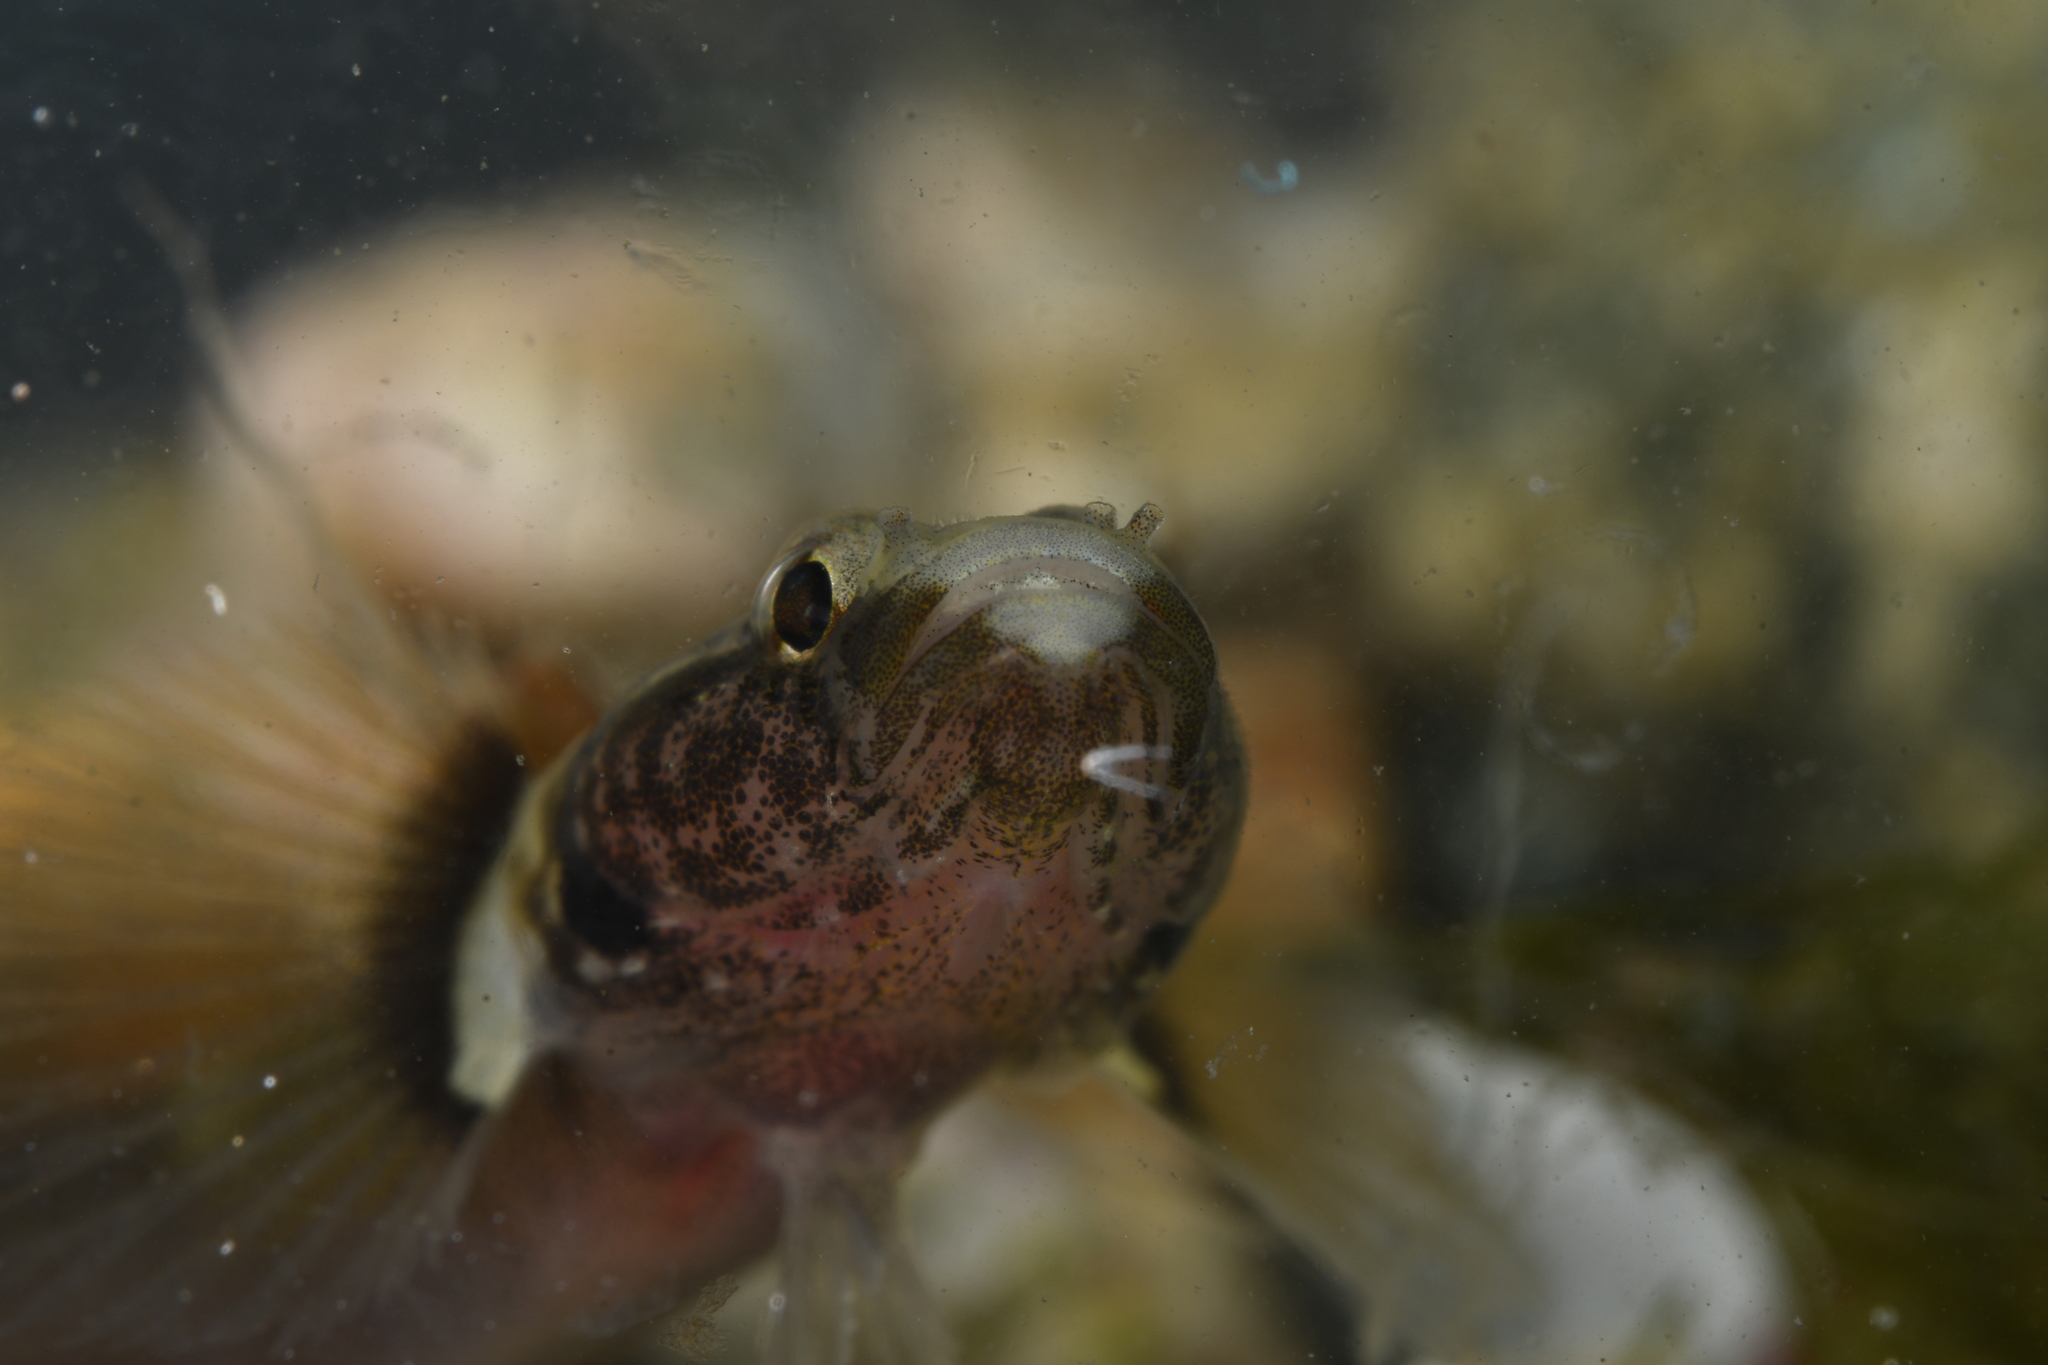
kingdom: Animalia
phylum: Chordata
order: Perciformes
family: Gobiidae
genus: Chromogobius
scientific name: Chromogobius quadrivittatus
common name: Chestnut goby
